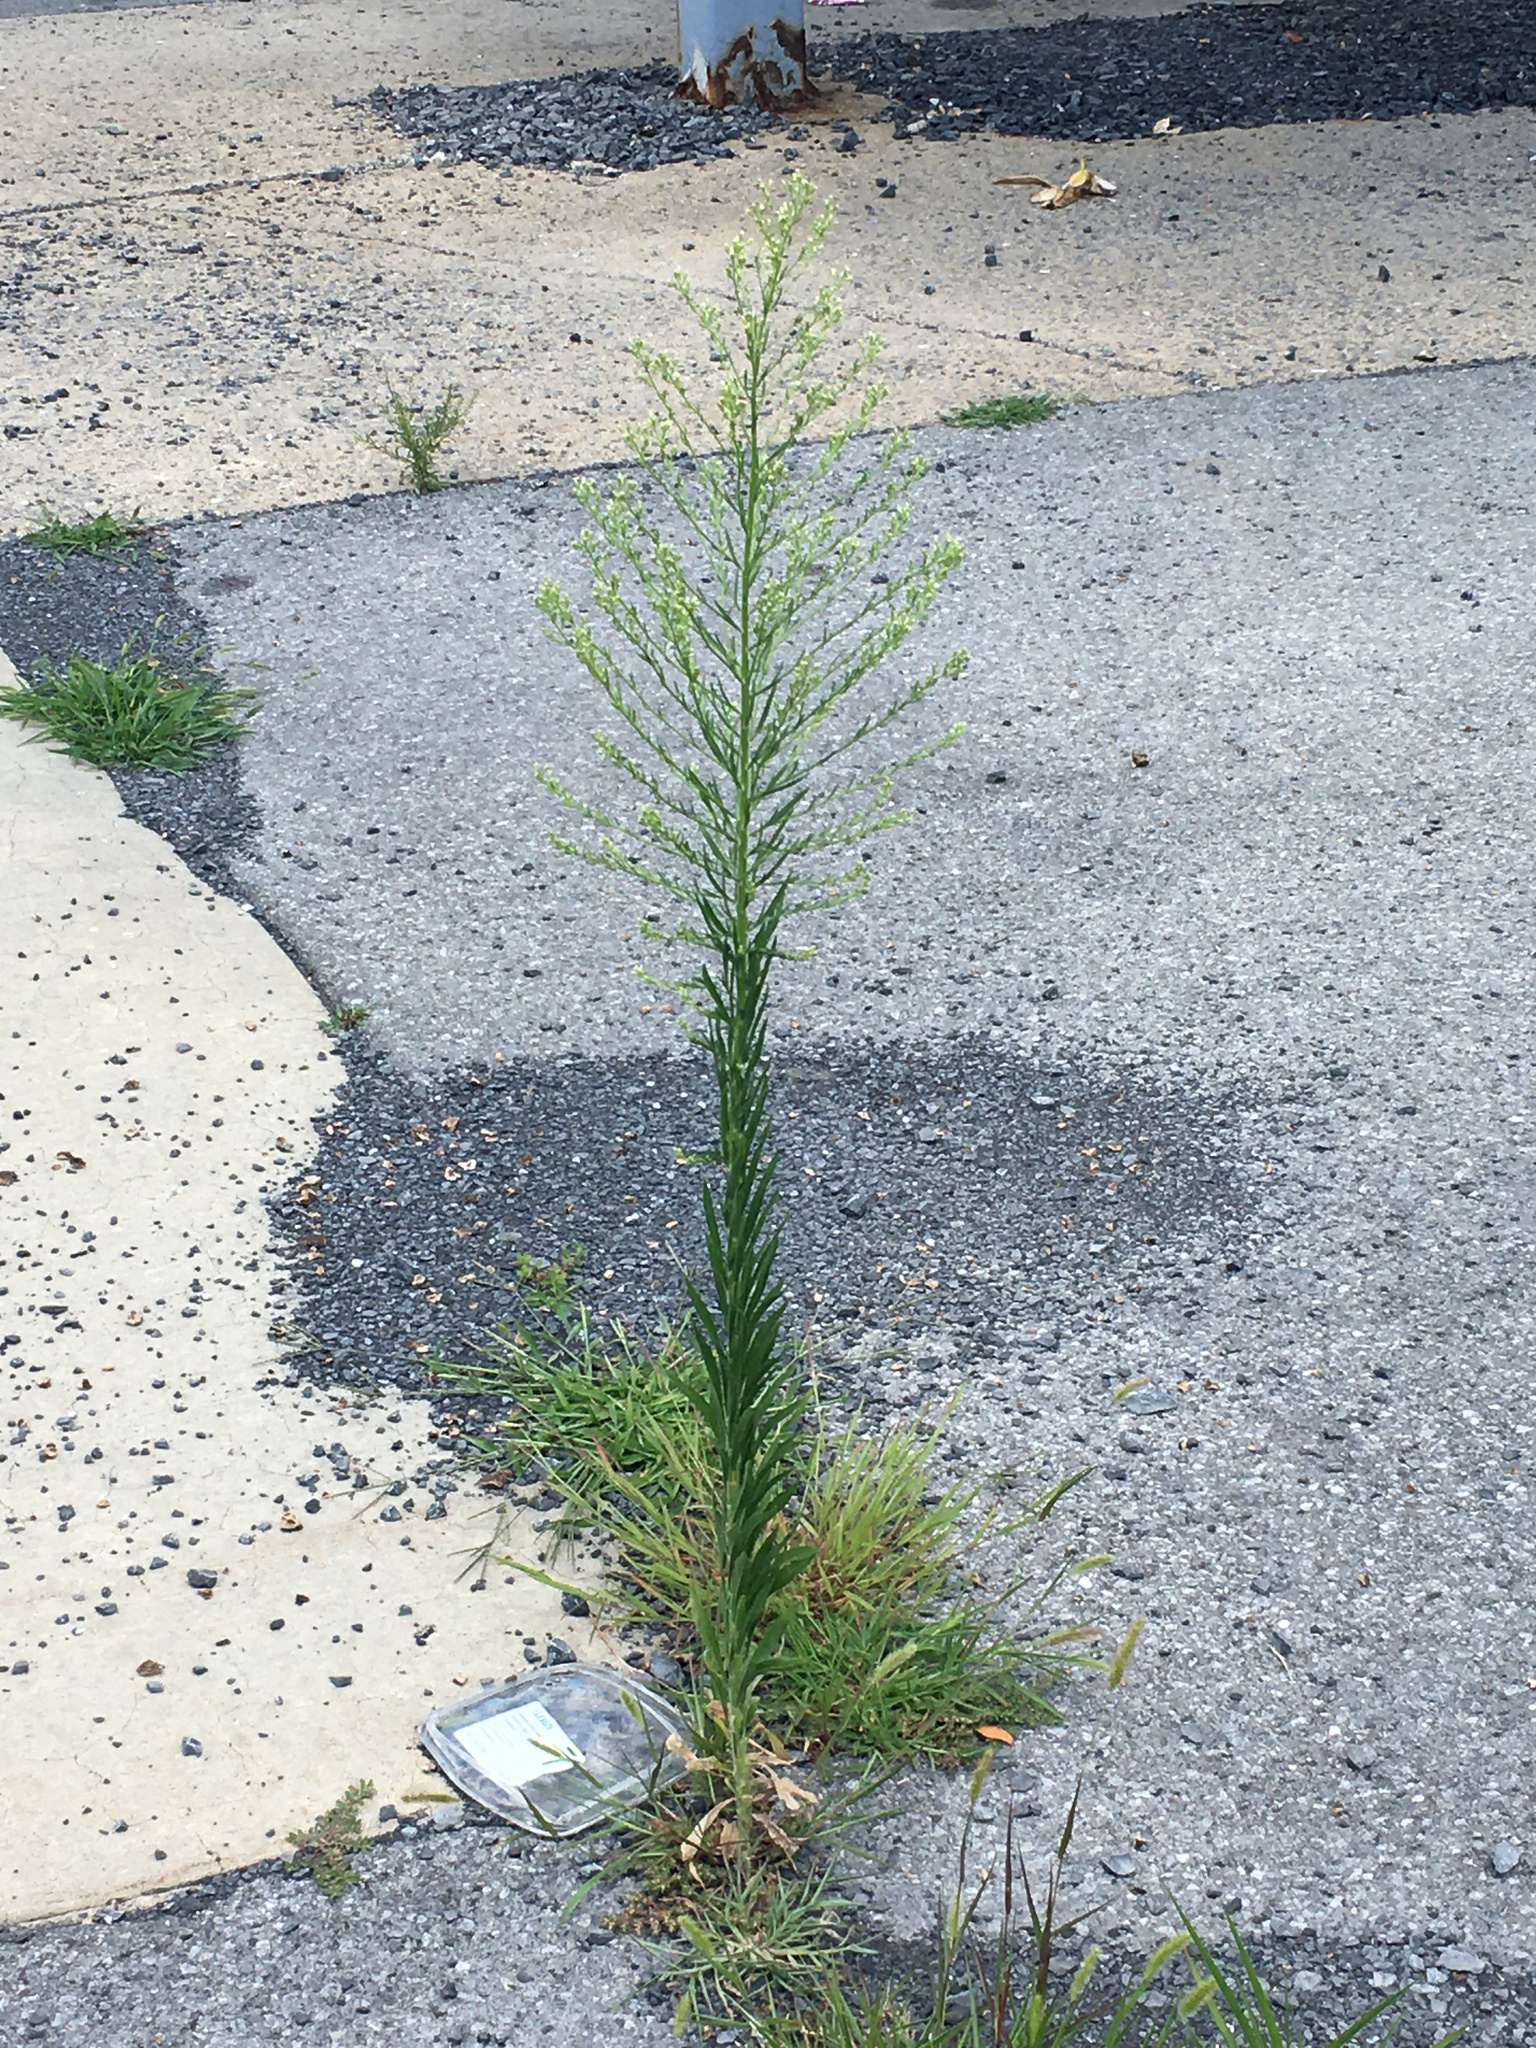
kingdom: Plantae
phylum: Tracheophyta
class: Magnoliopsida
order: Asterales
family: Asteraceae
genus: Erigeron
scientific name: Erigeron canadensis
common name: Canadian fleabane
